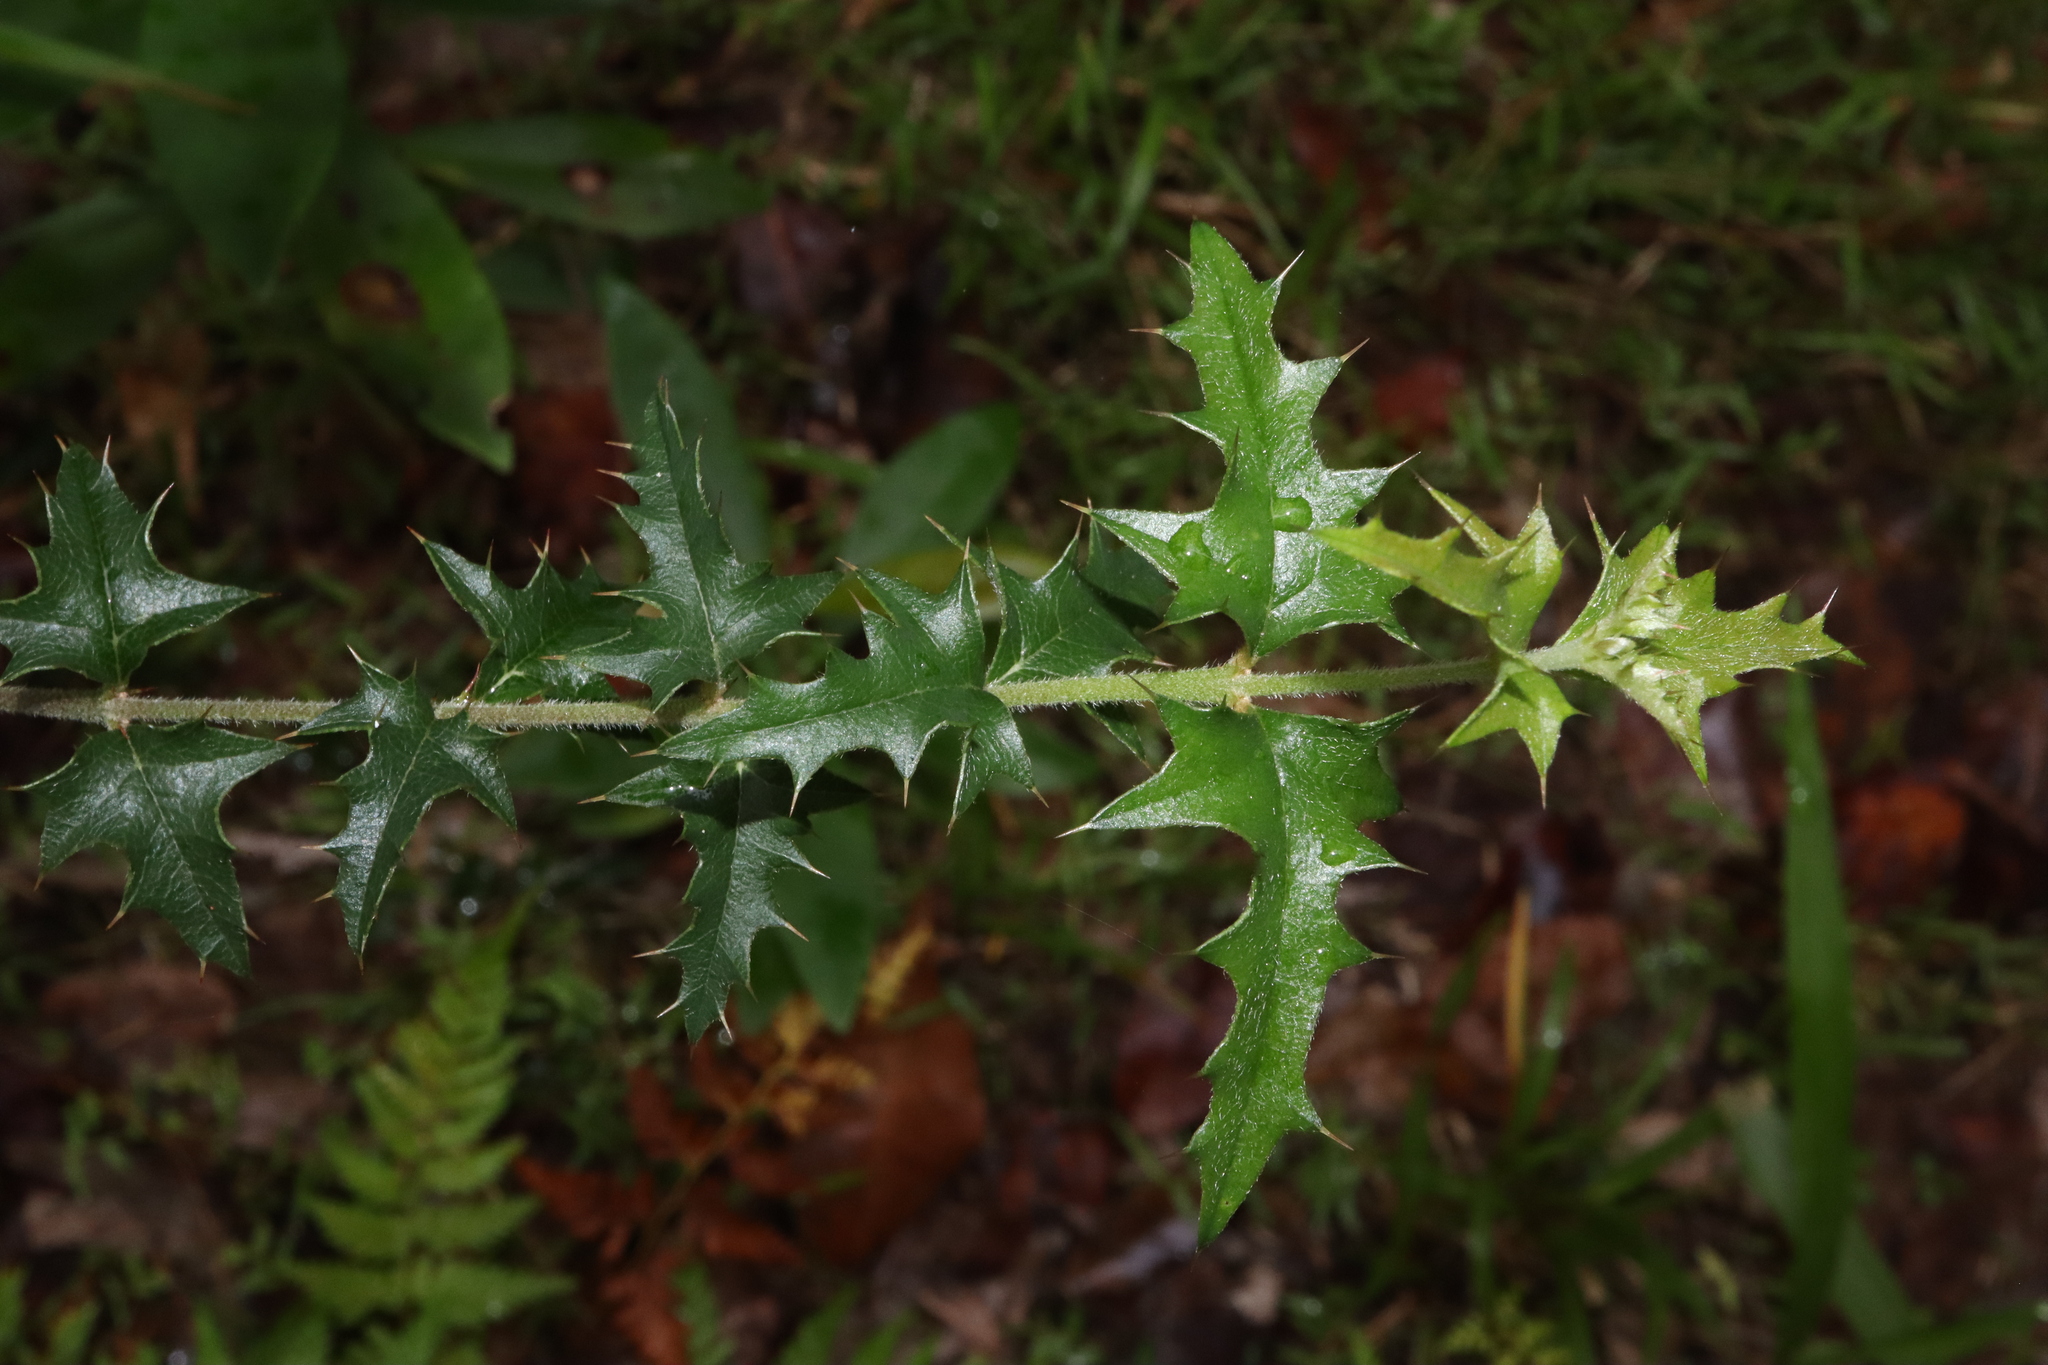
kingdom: Plantae
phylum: Tracheophyta
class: Magnoliopsida
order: Fabales
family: Fabaceae
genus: Podolobium
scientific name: Podolobium ilicifolium
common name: Native holly
